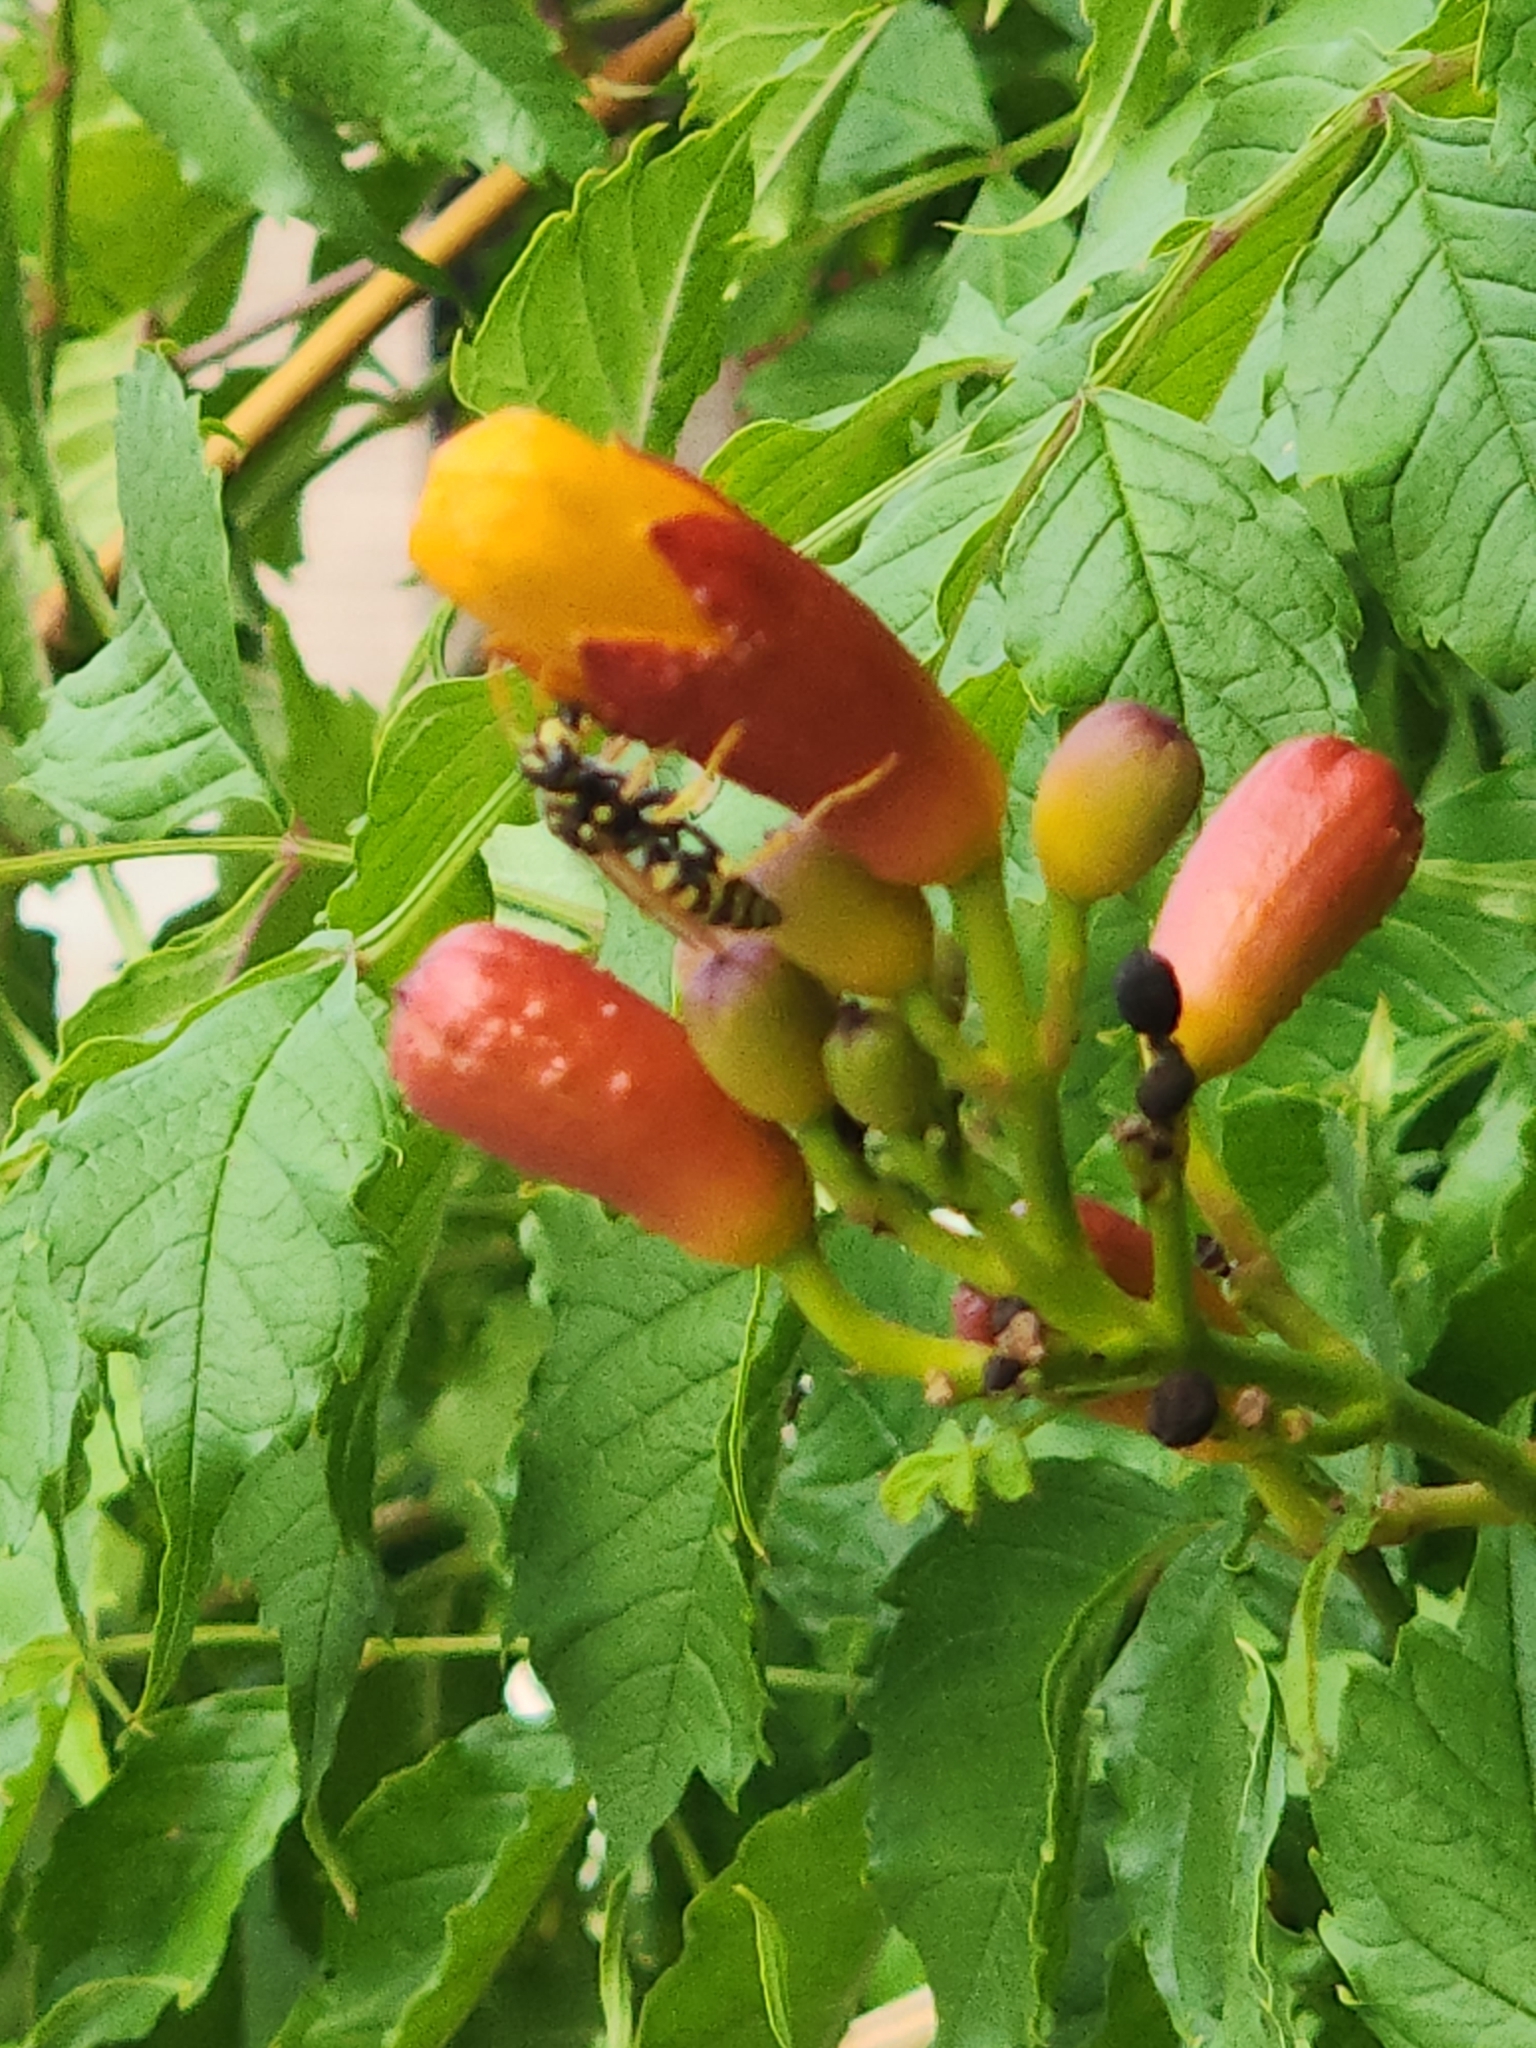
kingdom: Animalia
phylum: Arthropoda
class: Insecta
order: Hymenoptera
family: Eumenidae
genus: Polistes
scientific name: Polistes dominula
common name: Paper wasp
